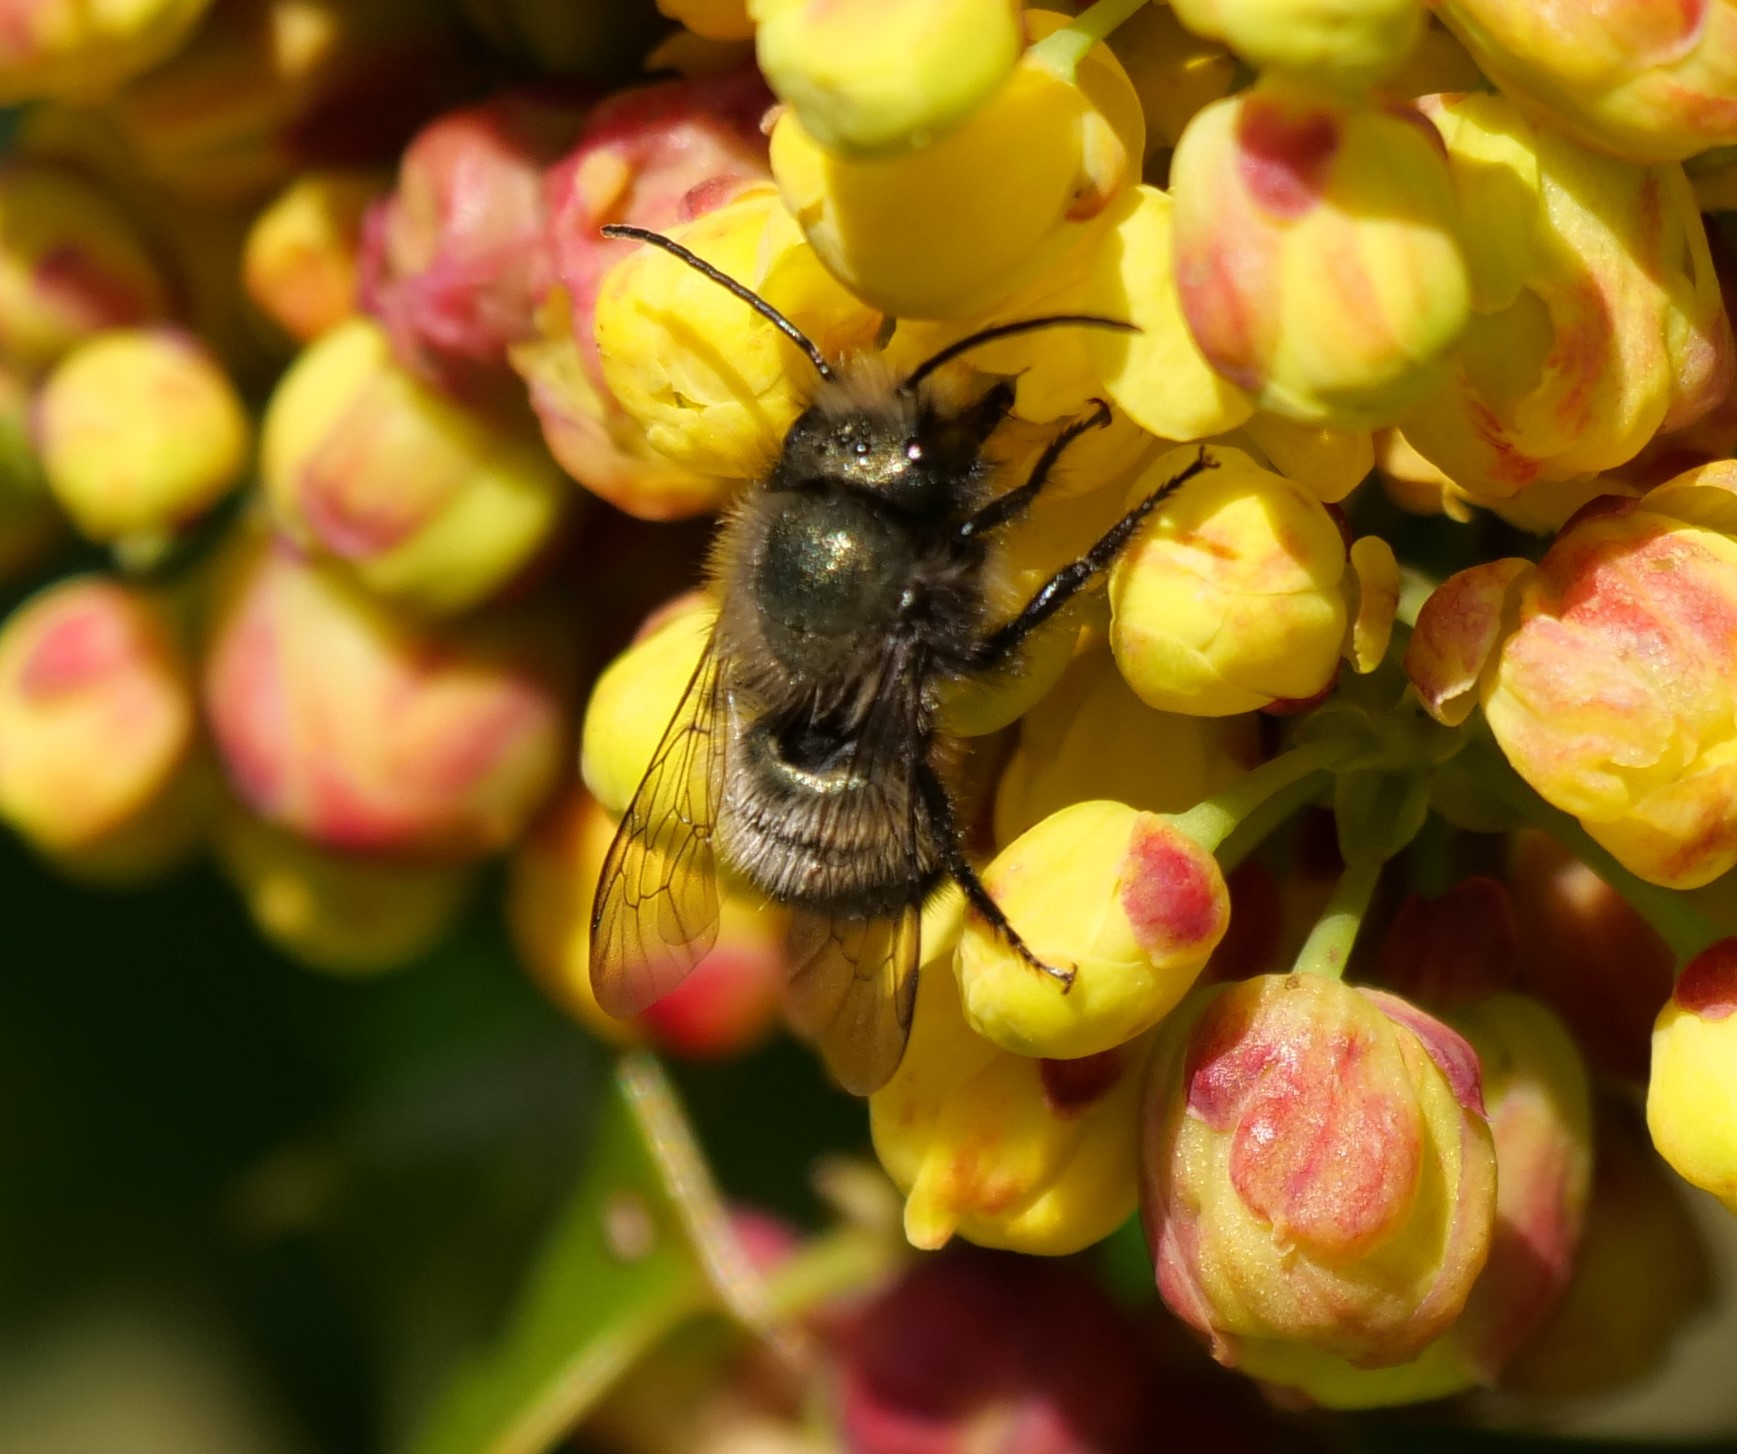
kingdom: Animalia
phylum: Arthropoda
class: Insecta
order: Hymenoptera
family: Megachilidae
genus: Osmia
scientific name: Osmia lignaria
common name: Blue orchard bee
